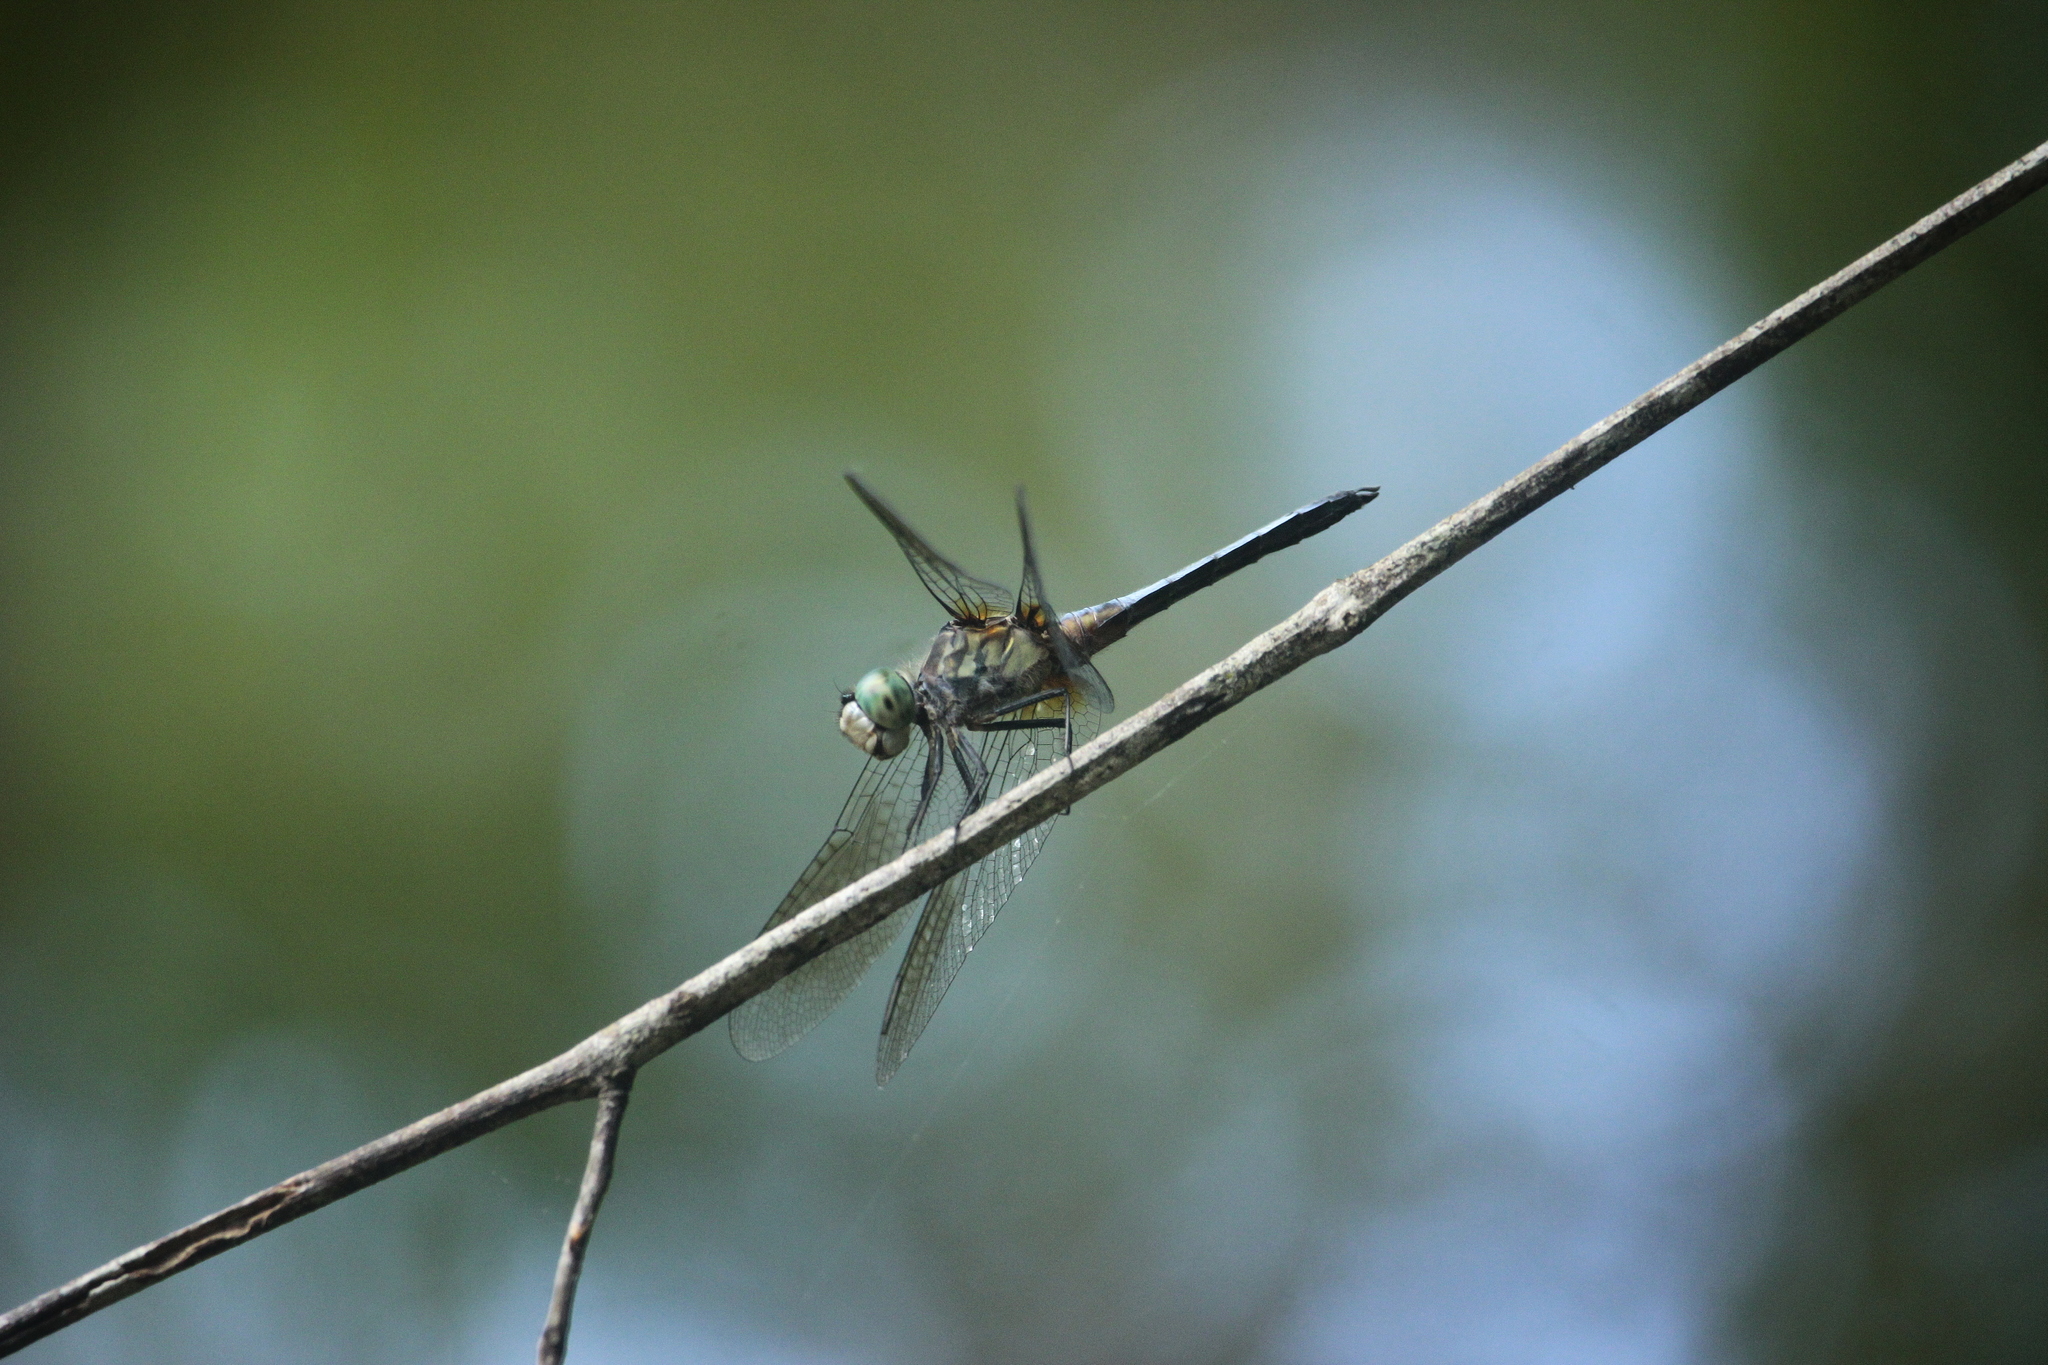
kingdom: Animalia
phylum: Arthropoda
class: Insecta
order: Odonata
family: Libellulidae
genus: Pachydiplax
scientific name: Pachydiplax longipennis
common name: Blue dasher
